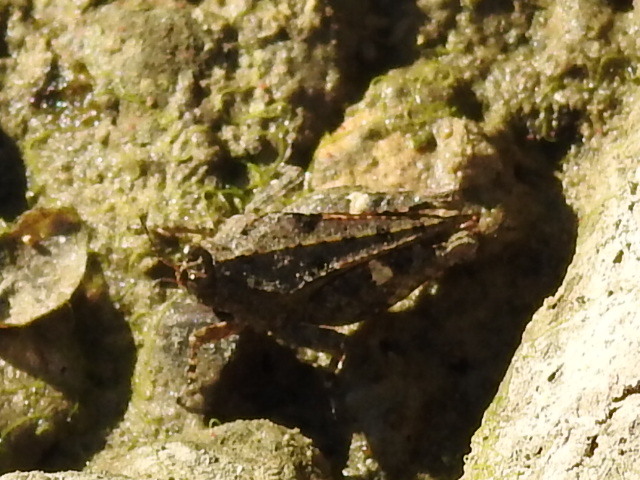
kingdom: Animalia
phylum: Arthropoda
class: Insecta
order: Orthoptera
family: Tetrigidae
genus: Paratettix
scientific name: Paratettix mexicanus
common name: Mexican pygmy grasshopper
